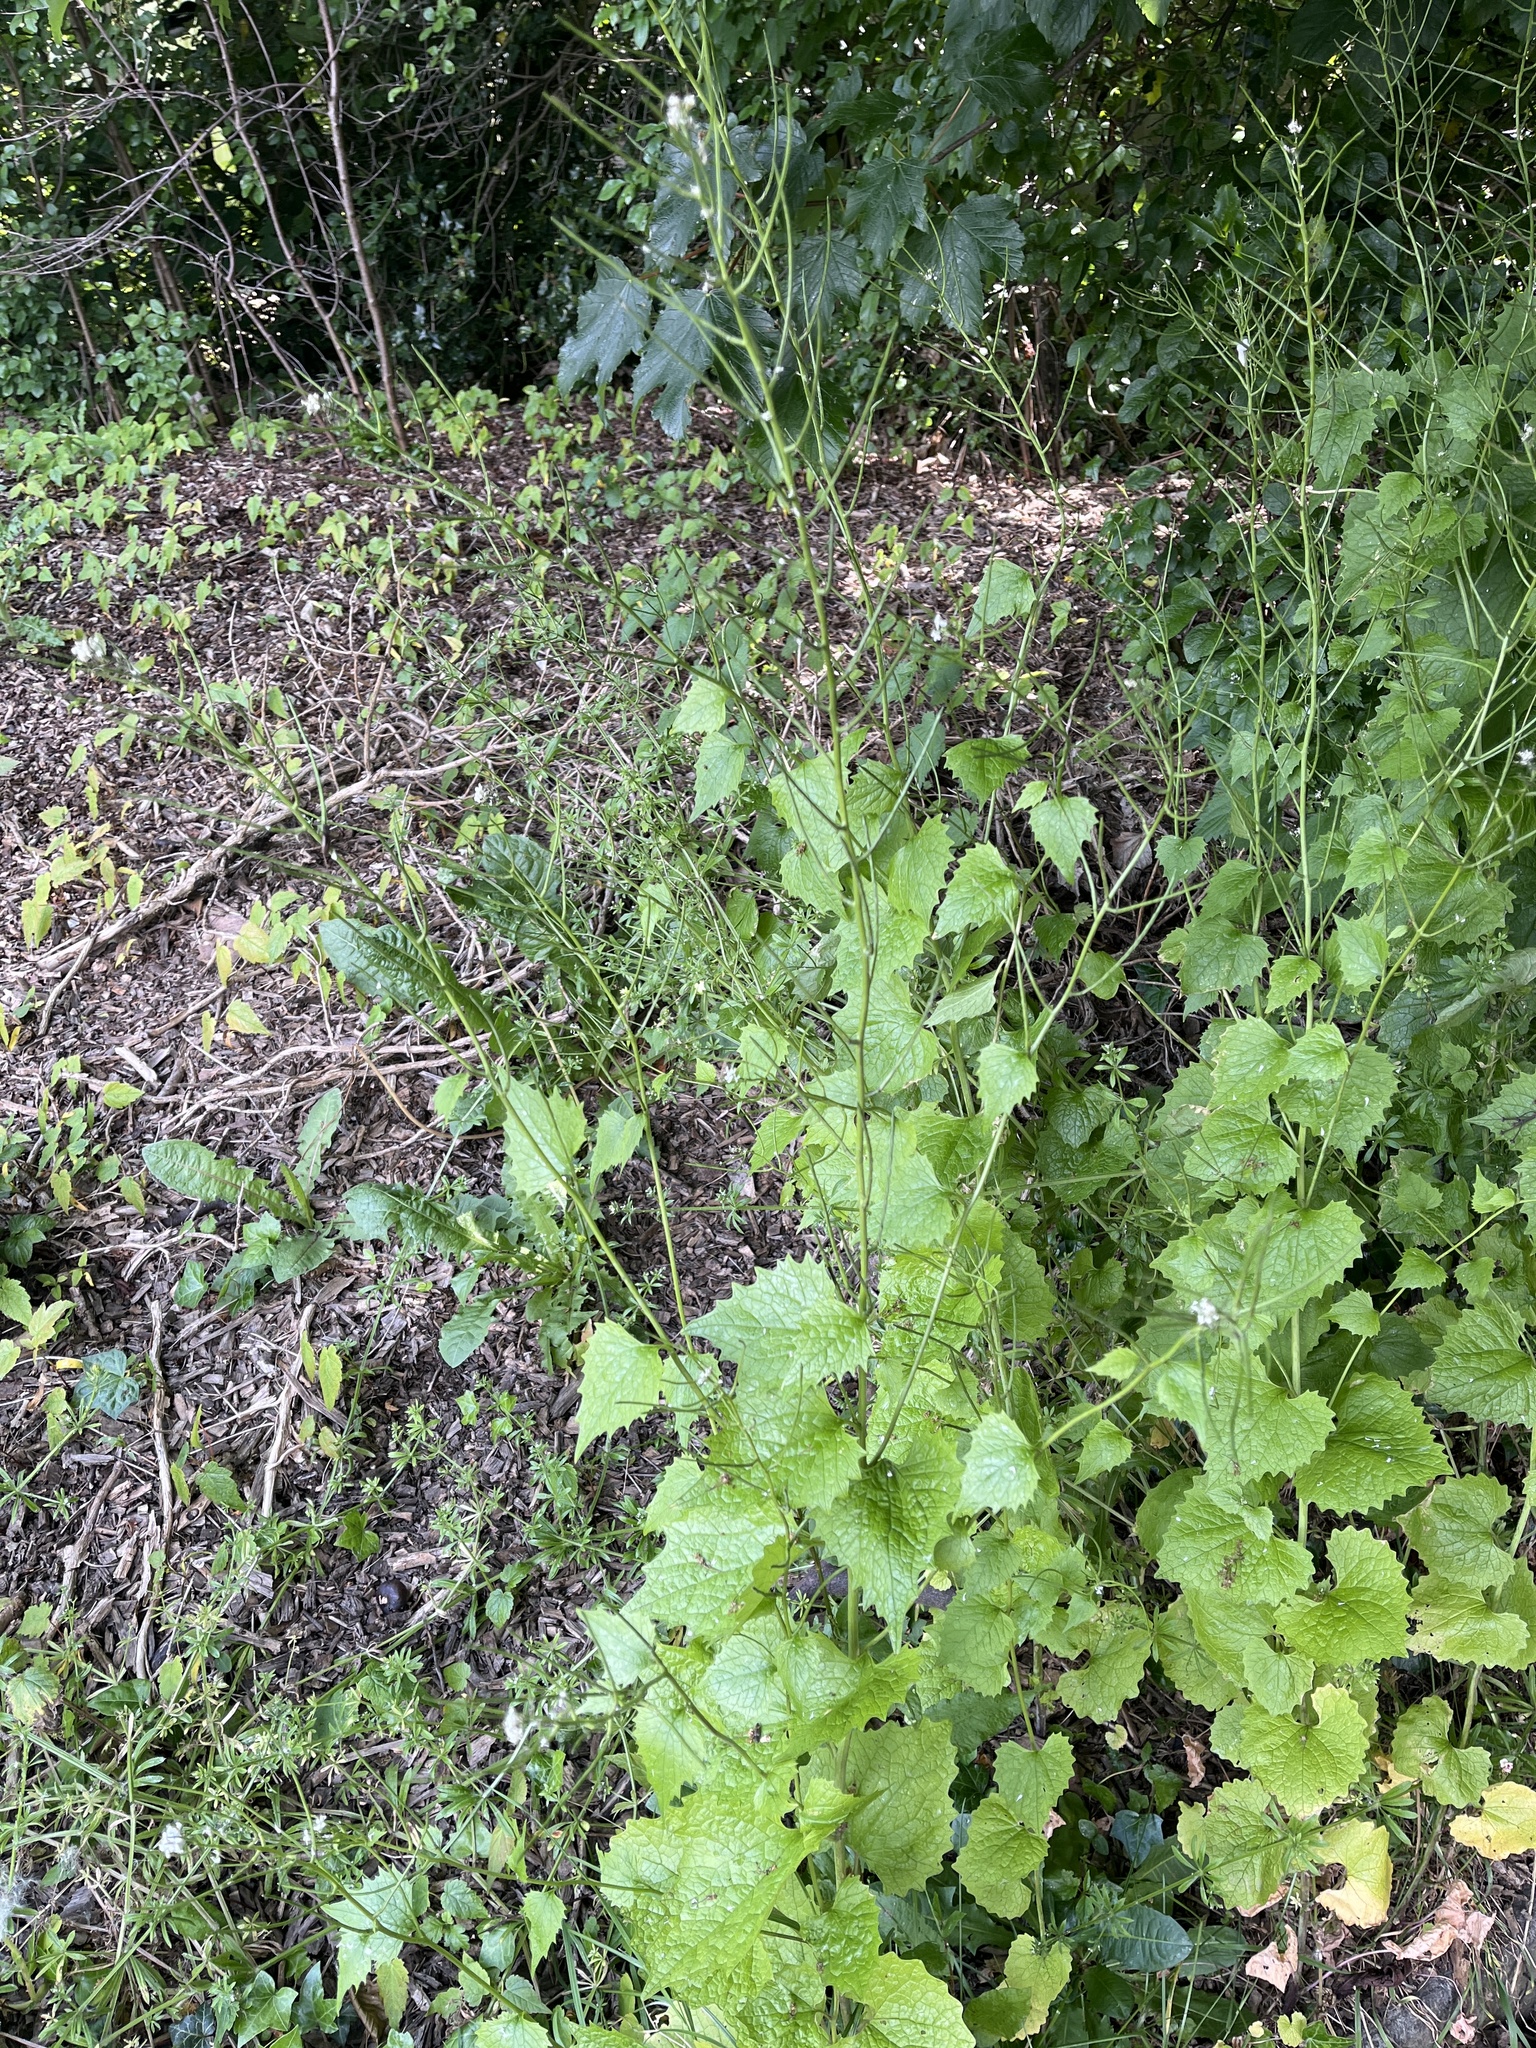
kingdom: Plantae
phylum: Tracheophyta
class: Magnoliopsida
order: Brassicales
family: Brassicaceae
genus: Alliaria
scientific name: Alliaria petiolata
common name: Garlic mustard
